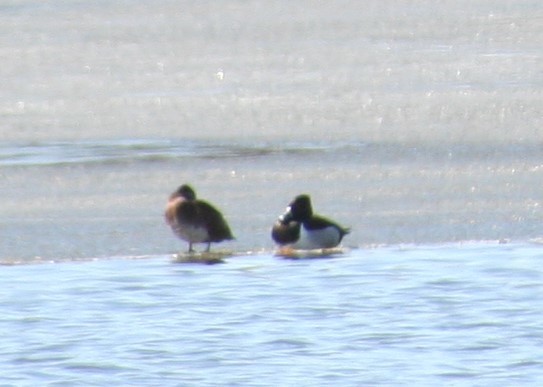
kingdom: Animalia
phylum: Chordata
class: Aves
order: Anseriformes
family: Anatidae
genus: Aythya
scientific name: Aythya collaris
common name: Ring-necked duck
